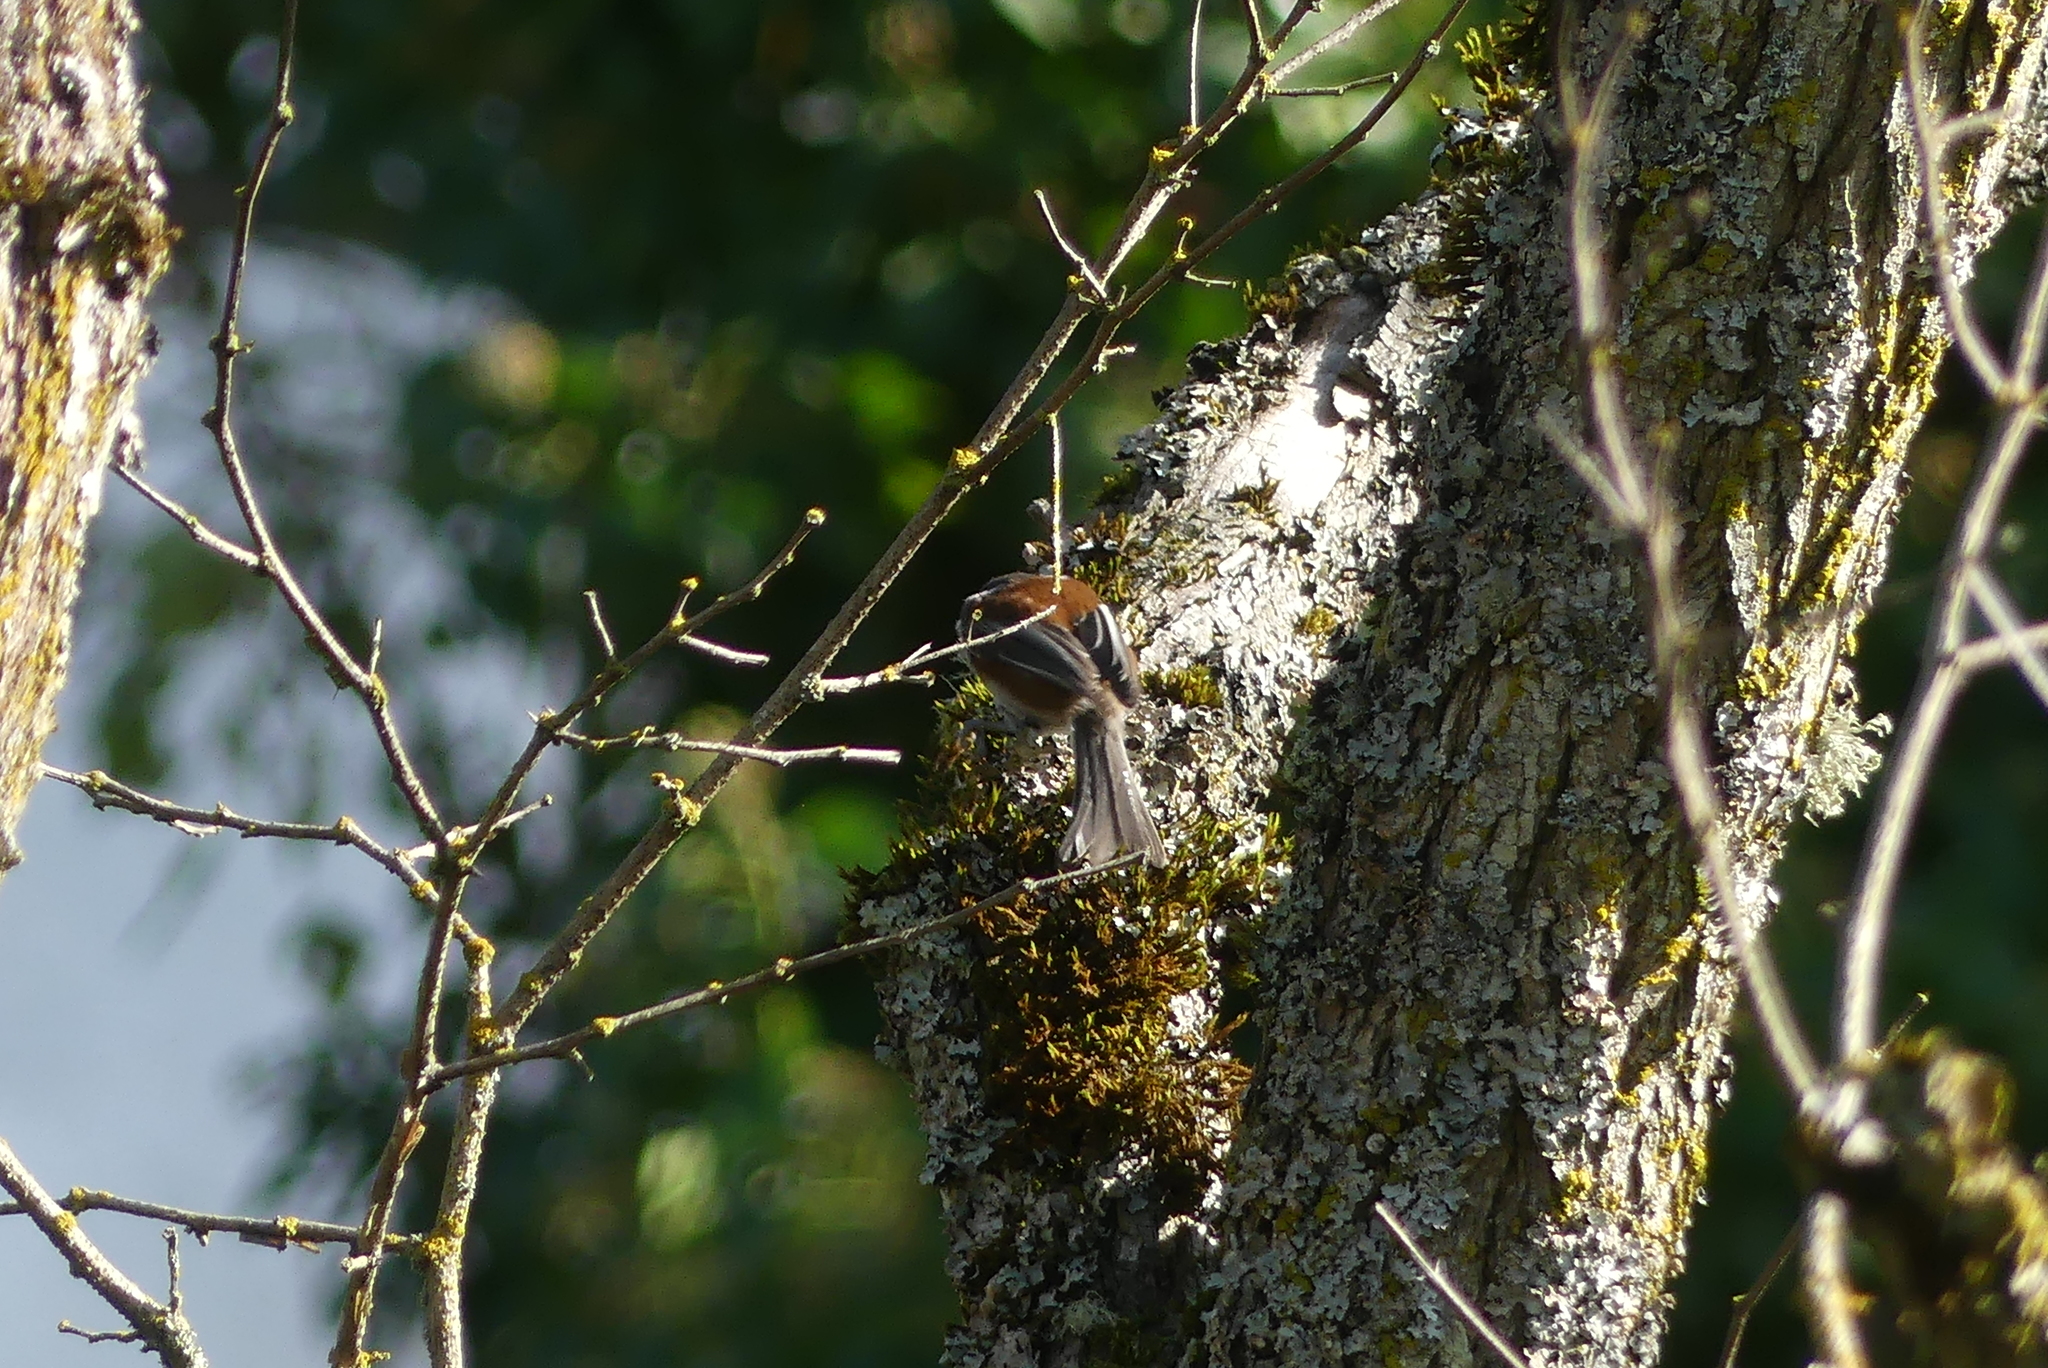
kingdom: Animalia
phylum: Chordata
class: Aves
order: Passeriformes
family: Paridae
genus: Poecile
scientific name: Poecile rufescens
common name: Chestnut-backed chickadee
